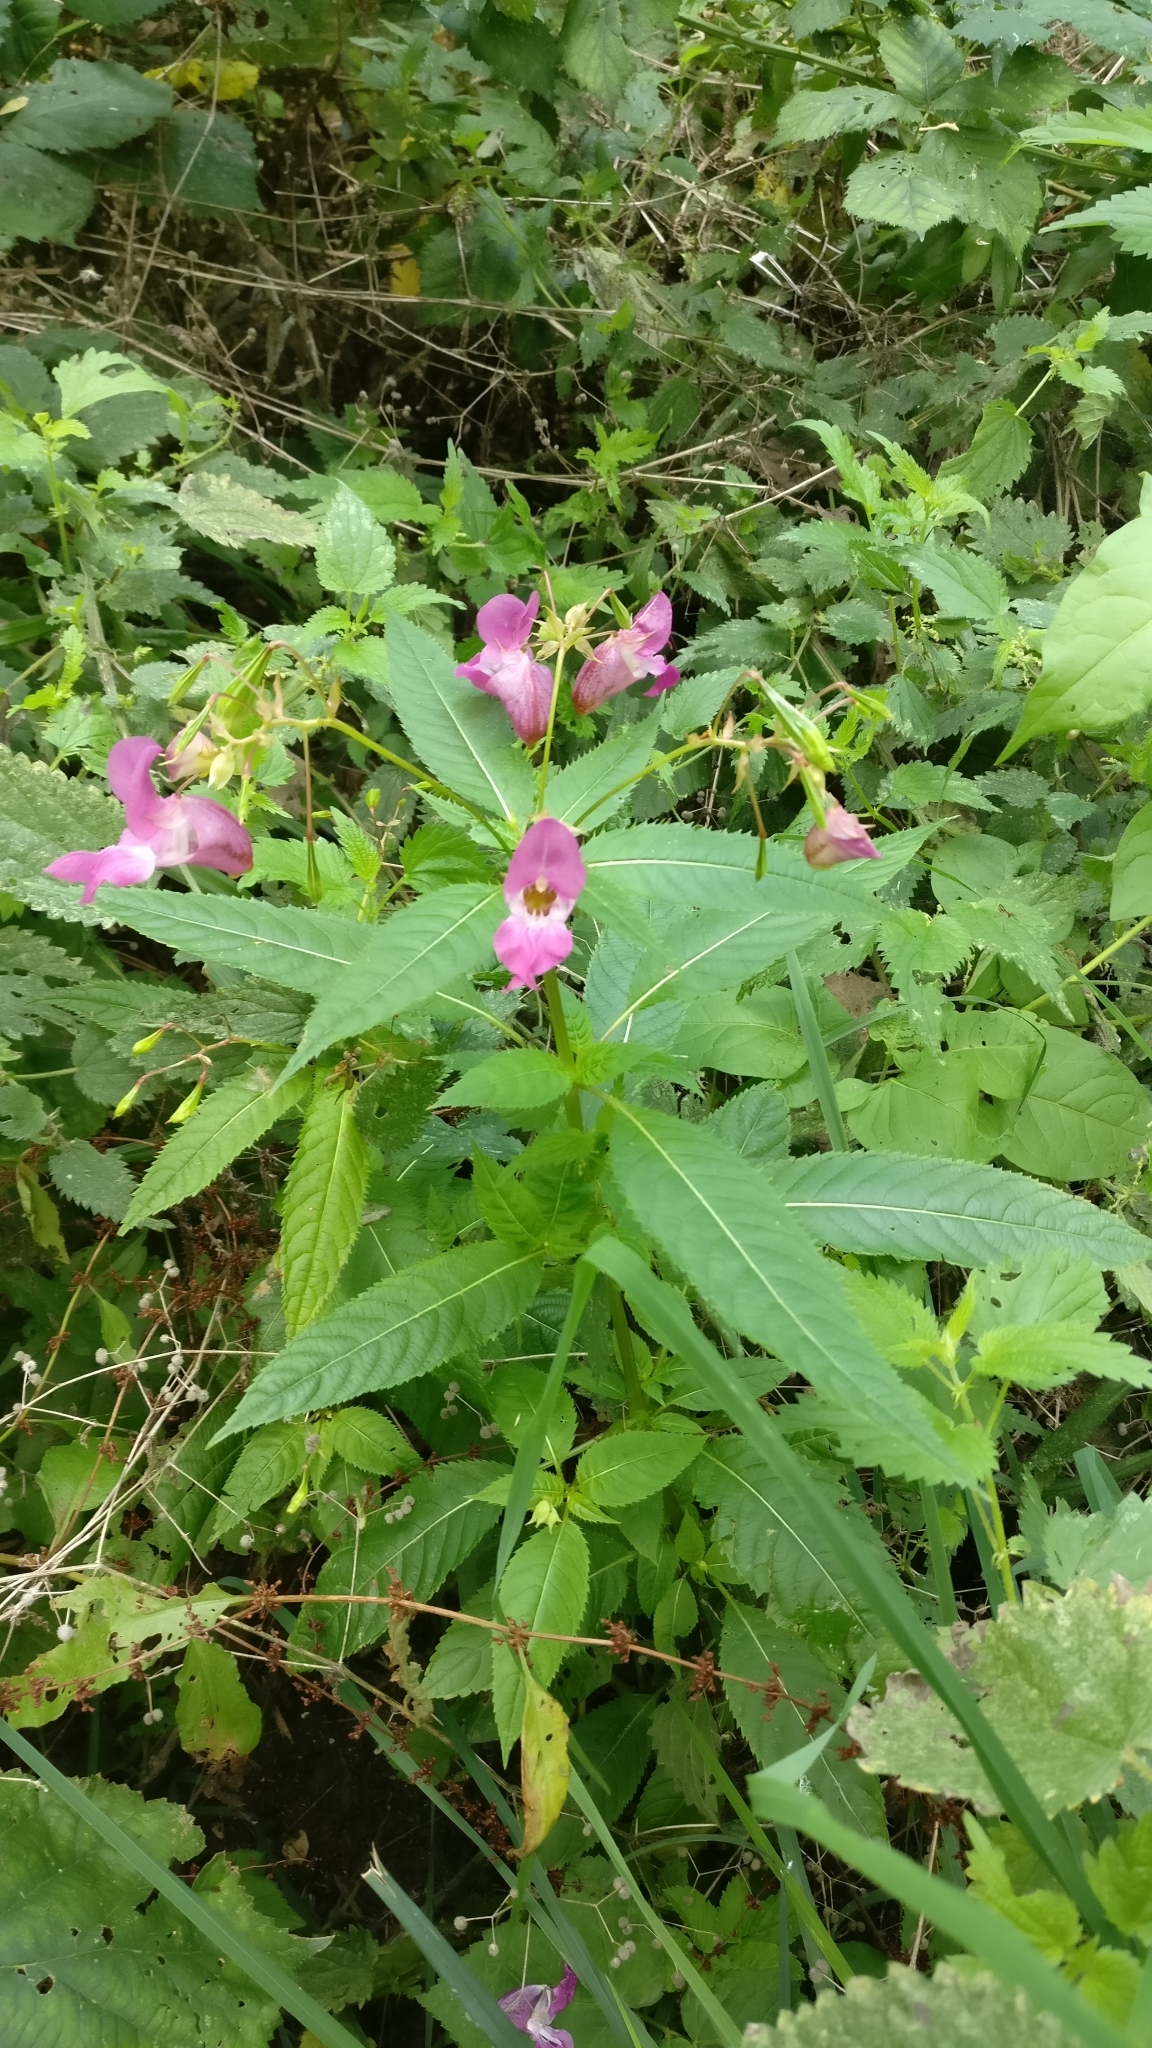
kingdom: Plantae
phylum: Tracheophyta
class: Magnoliopsida
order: Ericales
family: Balsaminaceae
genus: Impatiens
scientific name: Impatiens glandulifera
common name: Himalayan balsam
